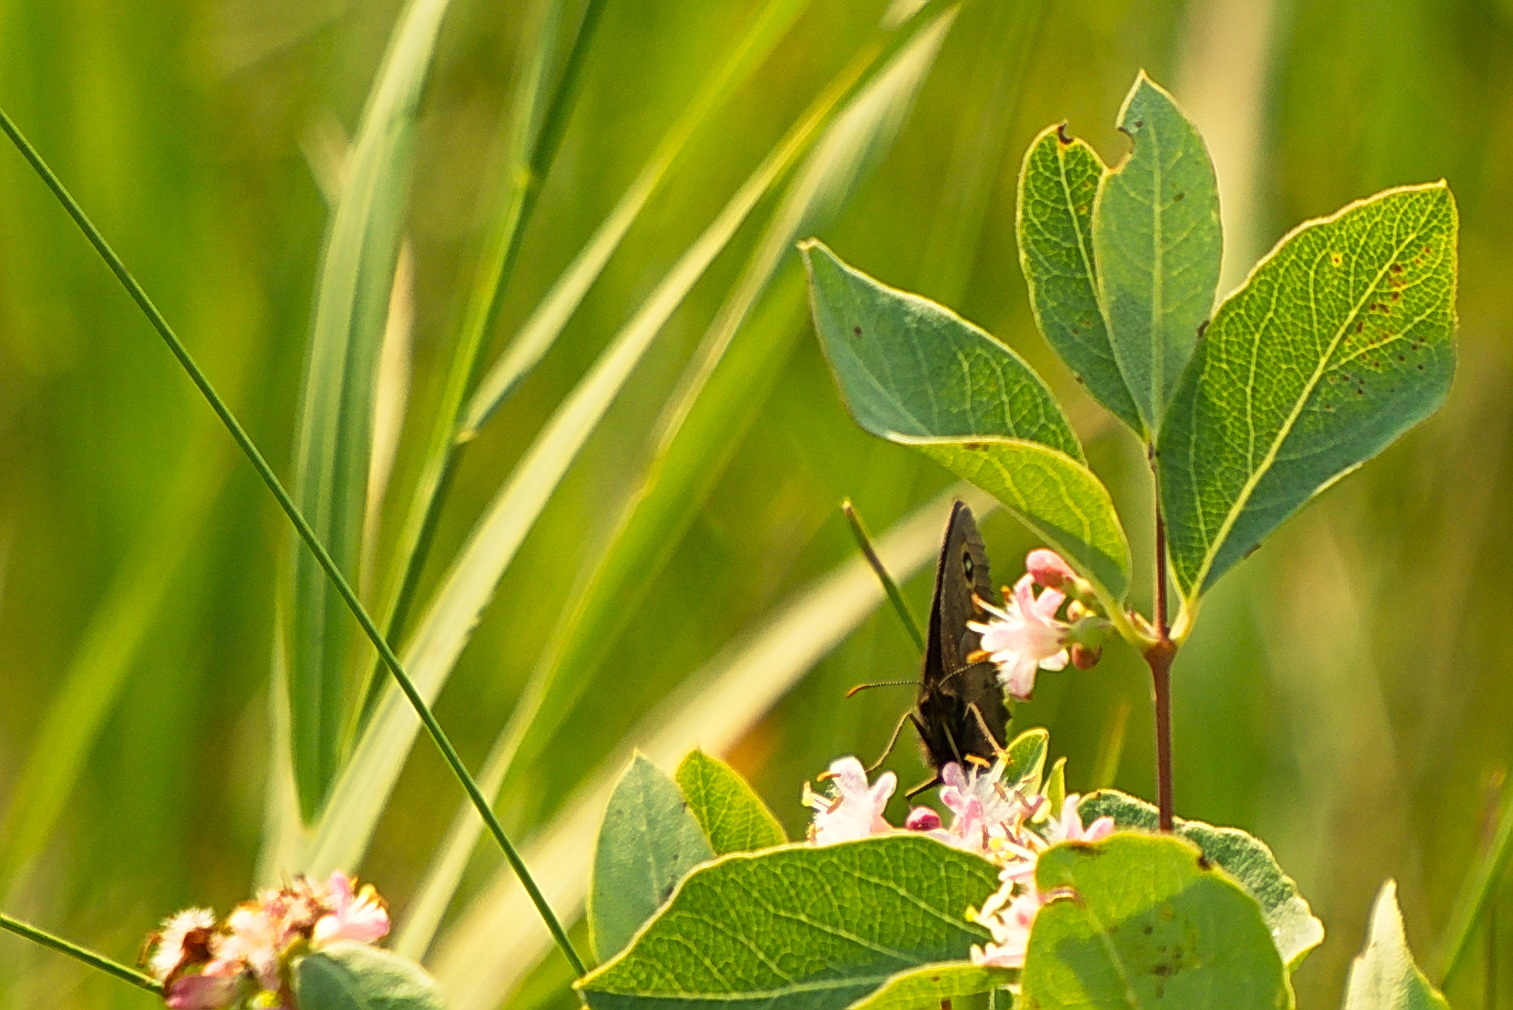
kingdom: Animalia
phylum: Arthropoda
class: Insecta
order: Lepidoptera
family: Nymphalidae
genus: Cercyonis
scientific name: Cercyonis pegala
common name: Common wood-nymph
